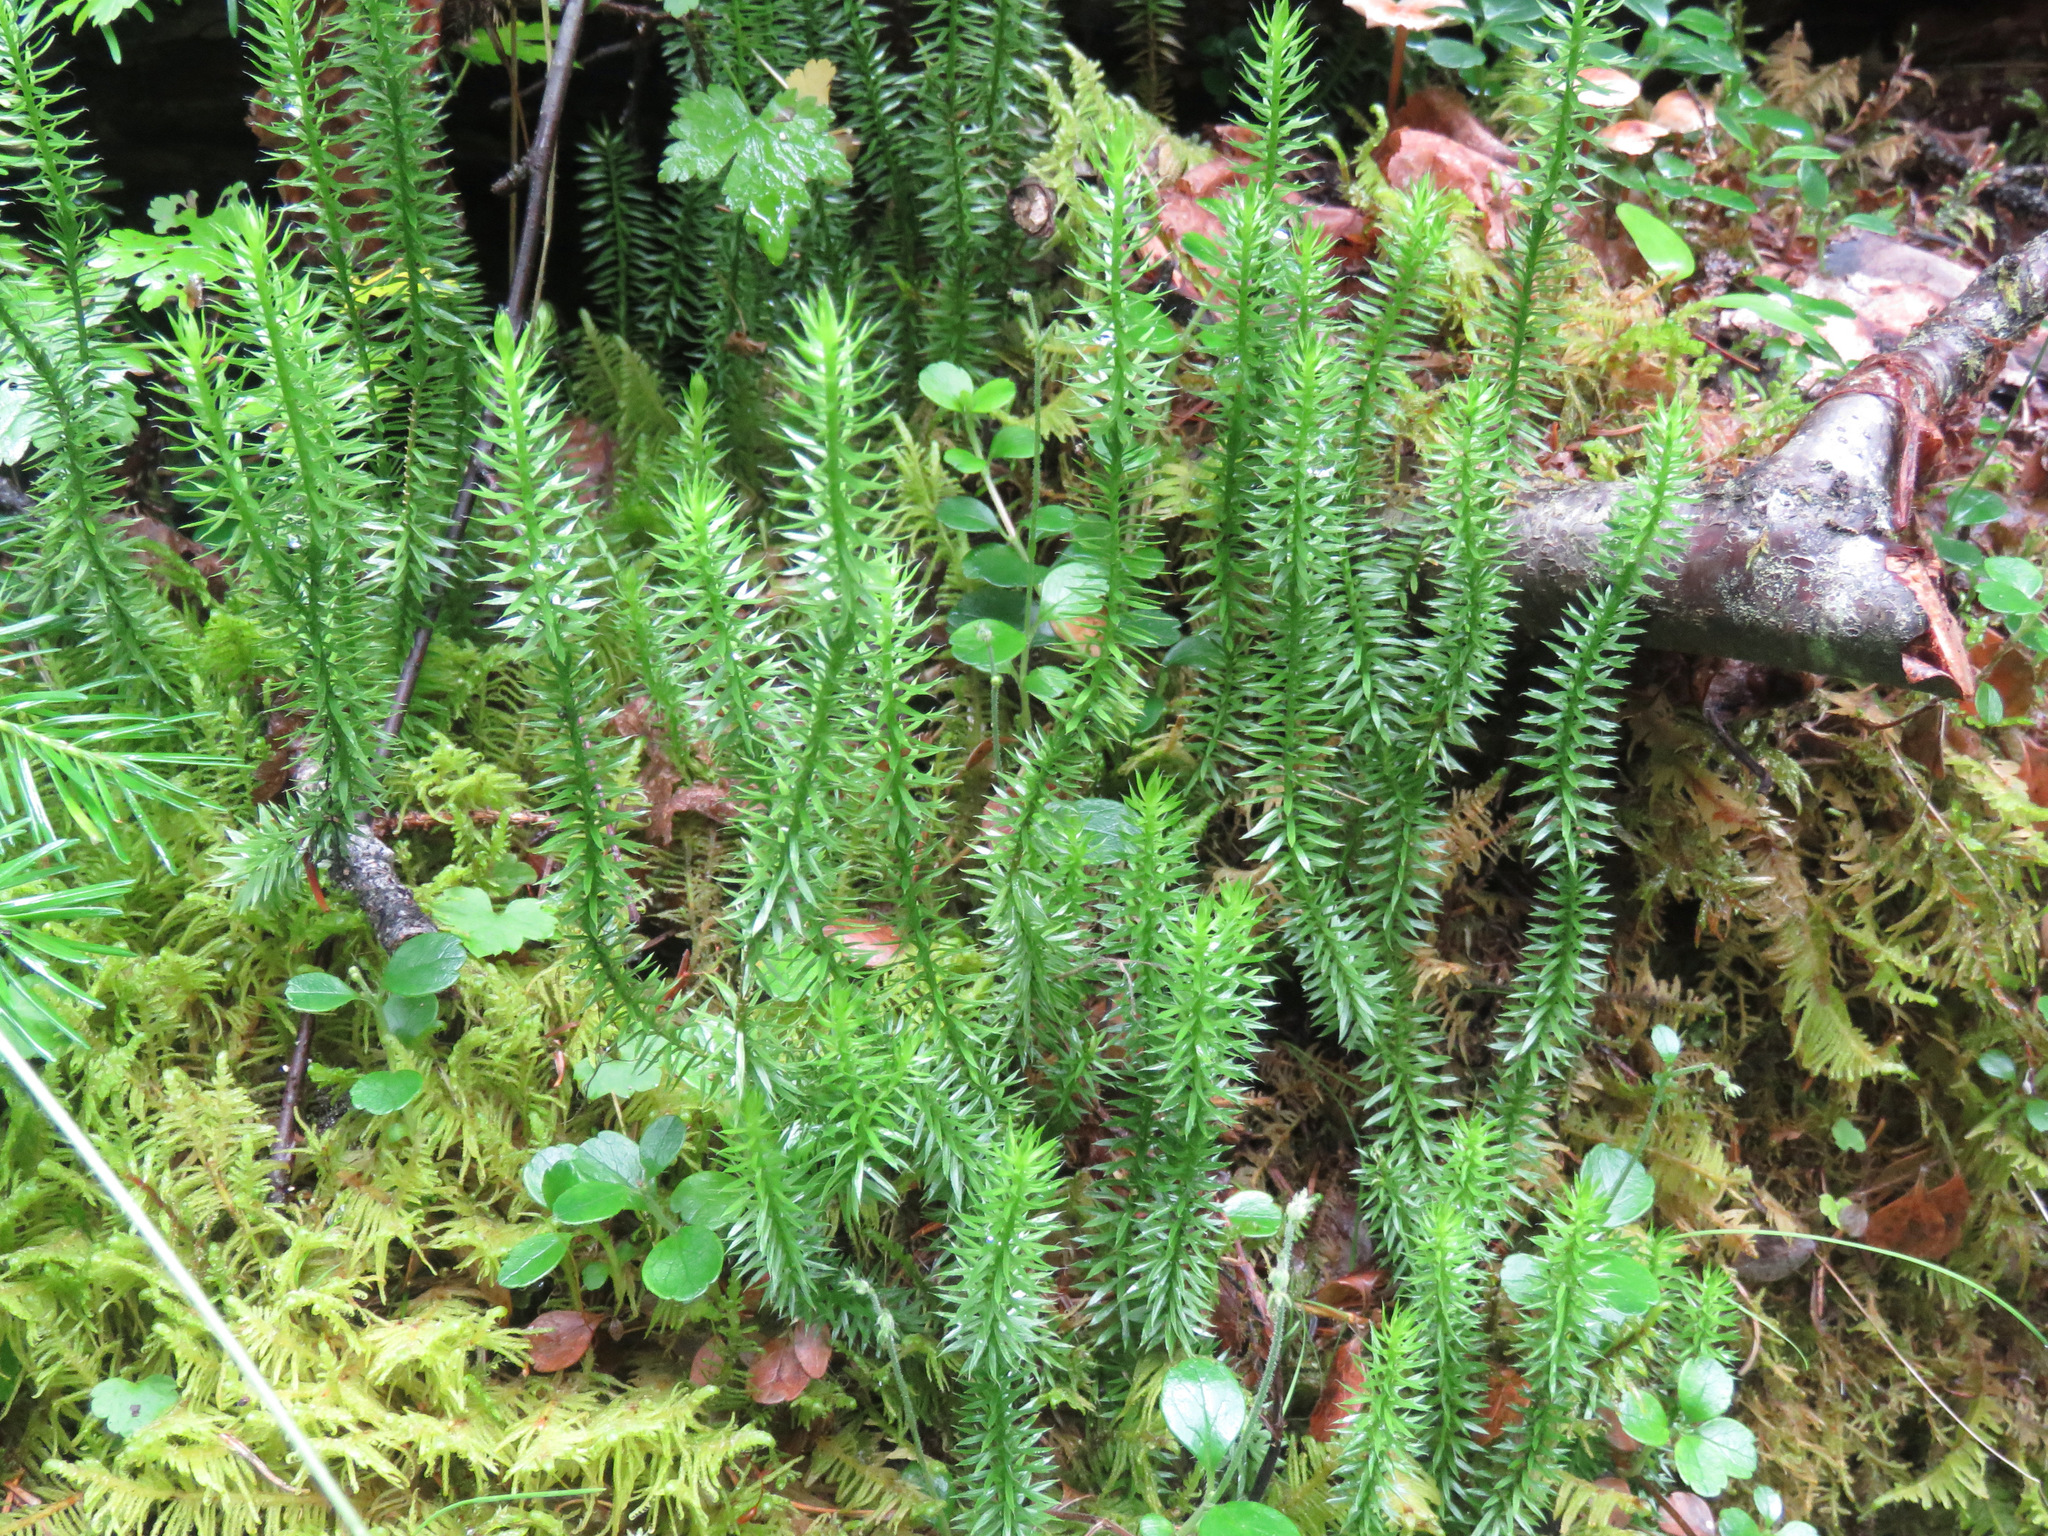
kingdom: Plantae
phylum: Tracheophyta
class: Lycopodiopsida
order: Lycopodiales
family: Lycopodiaceae
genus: Spinulum
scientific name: Spinulum annotinum
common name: Interrupted club-moss
